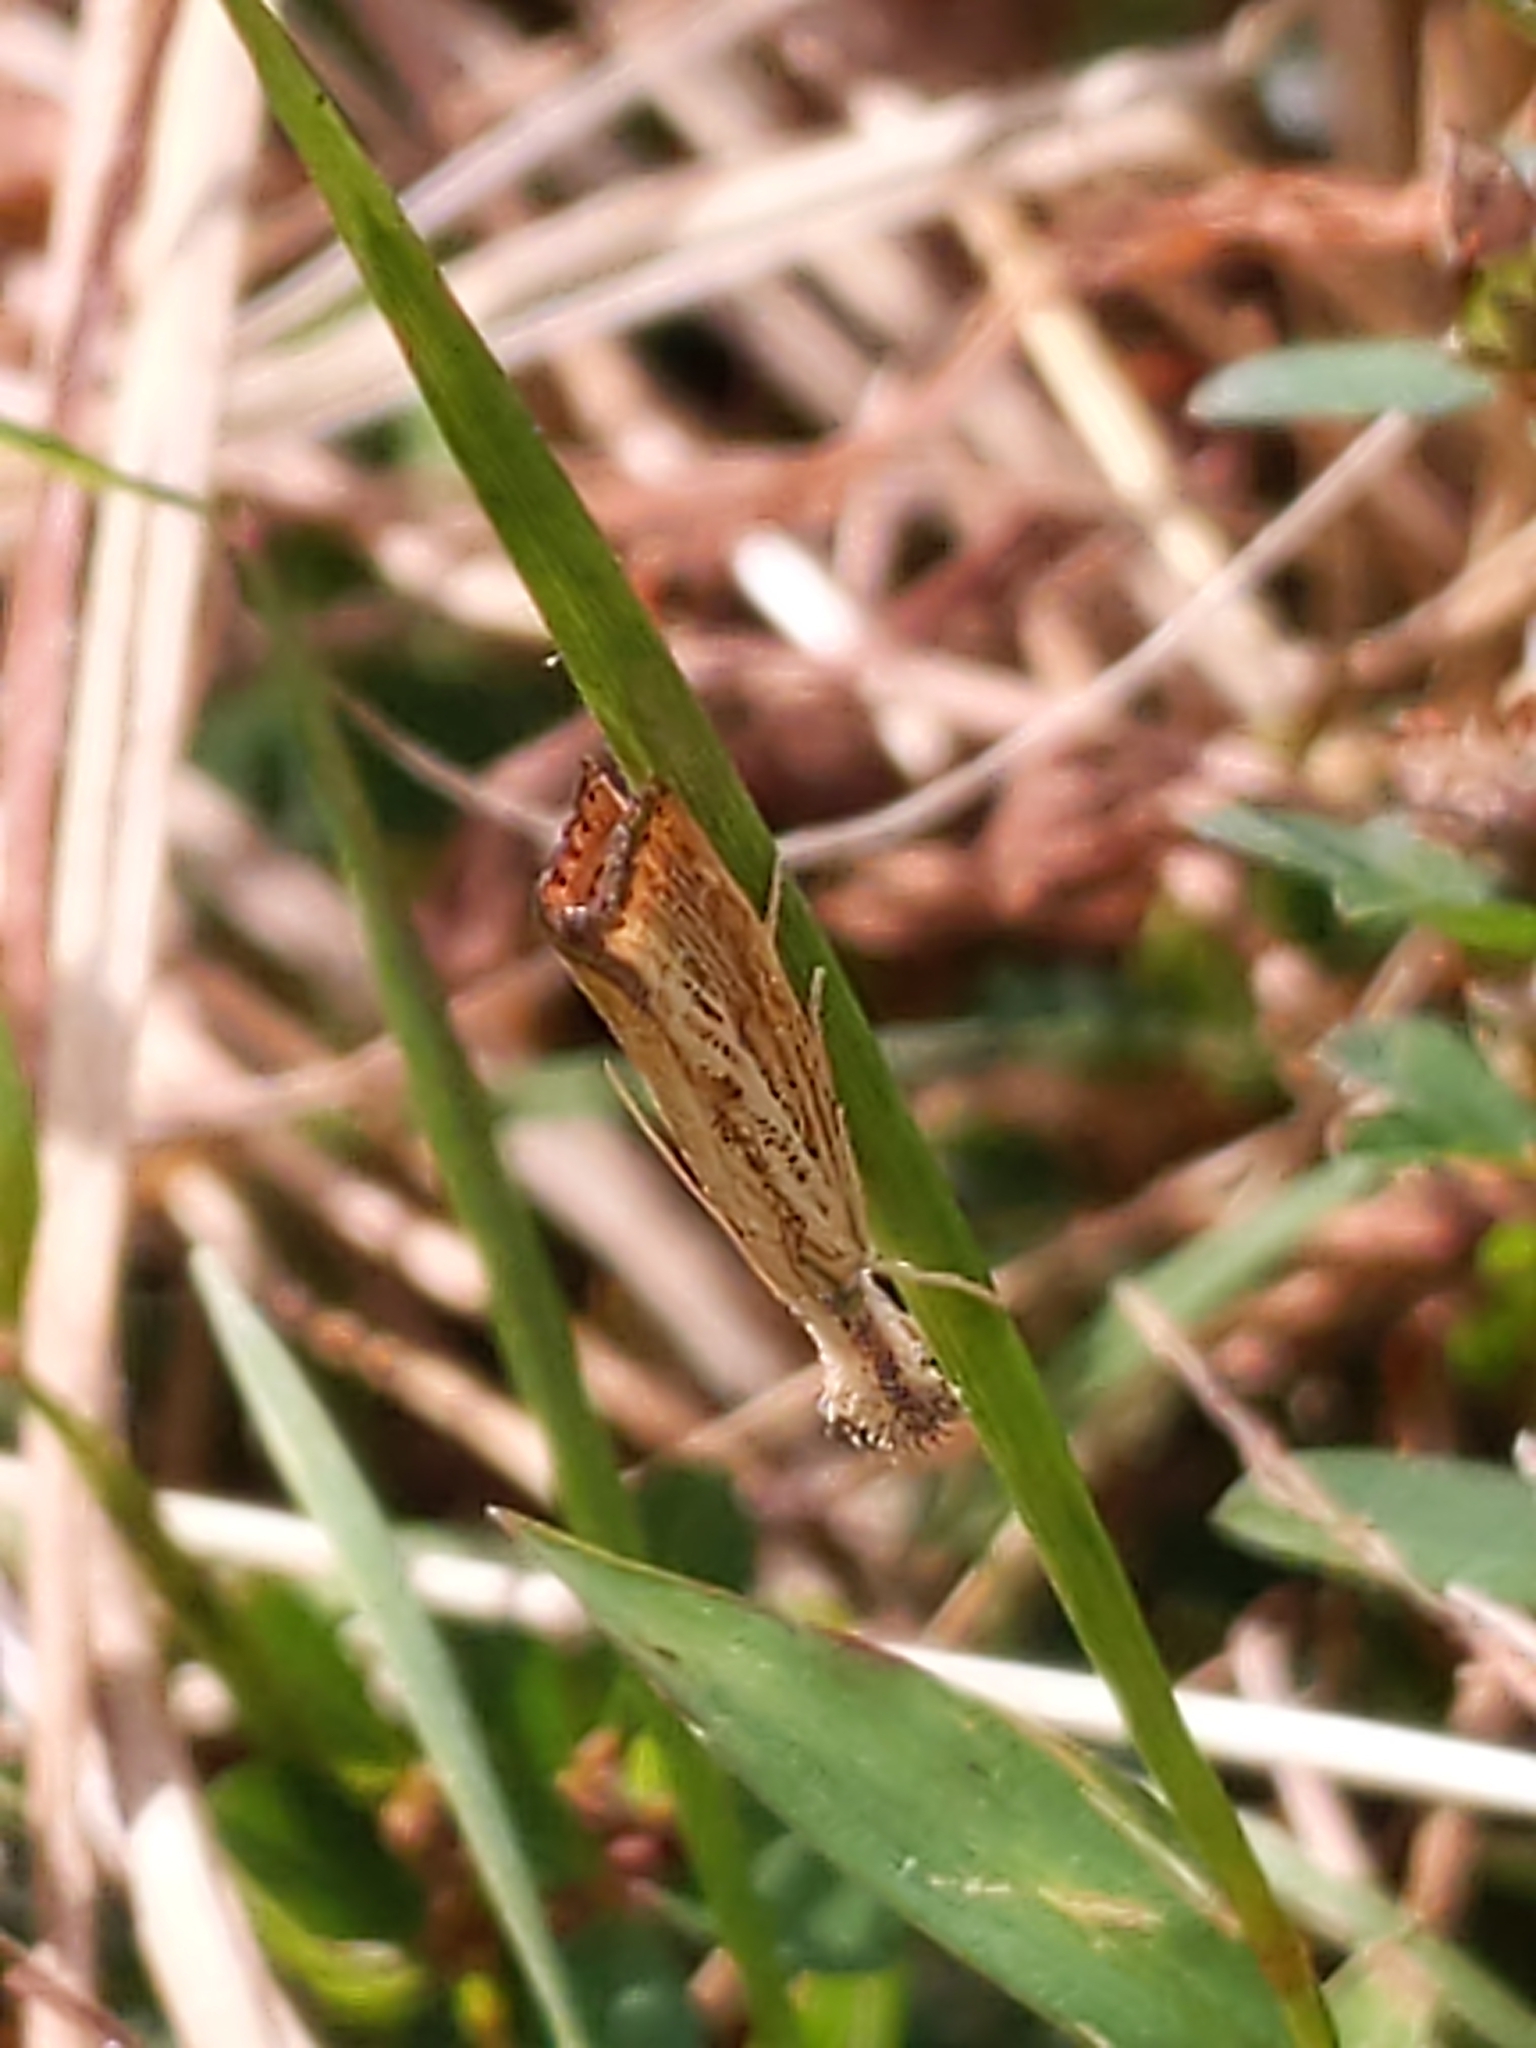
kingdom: Animalia
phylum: Arthropoda
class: Insecta
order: Lepidoptera
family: Crambidae
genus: Agriphila
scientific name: Agriphila ruricolellus
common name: Lesser vagabond sod webworm
